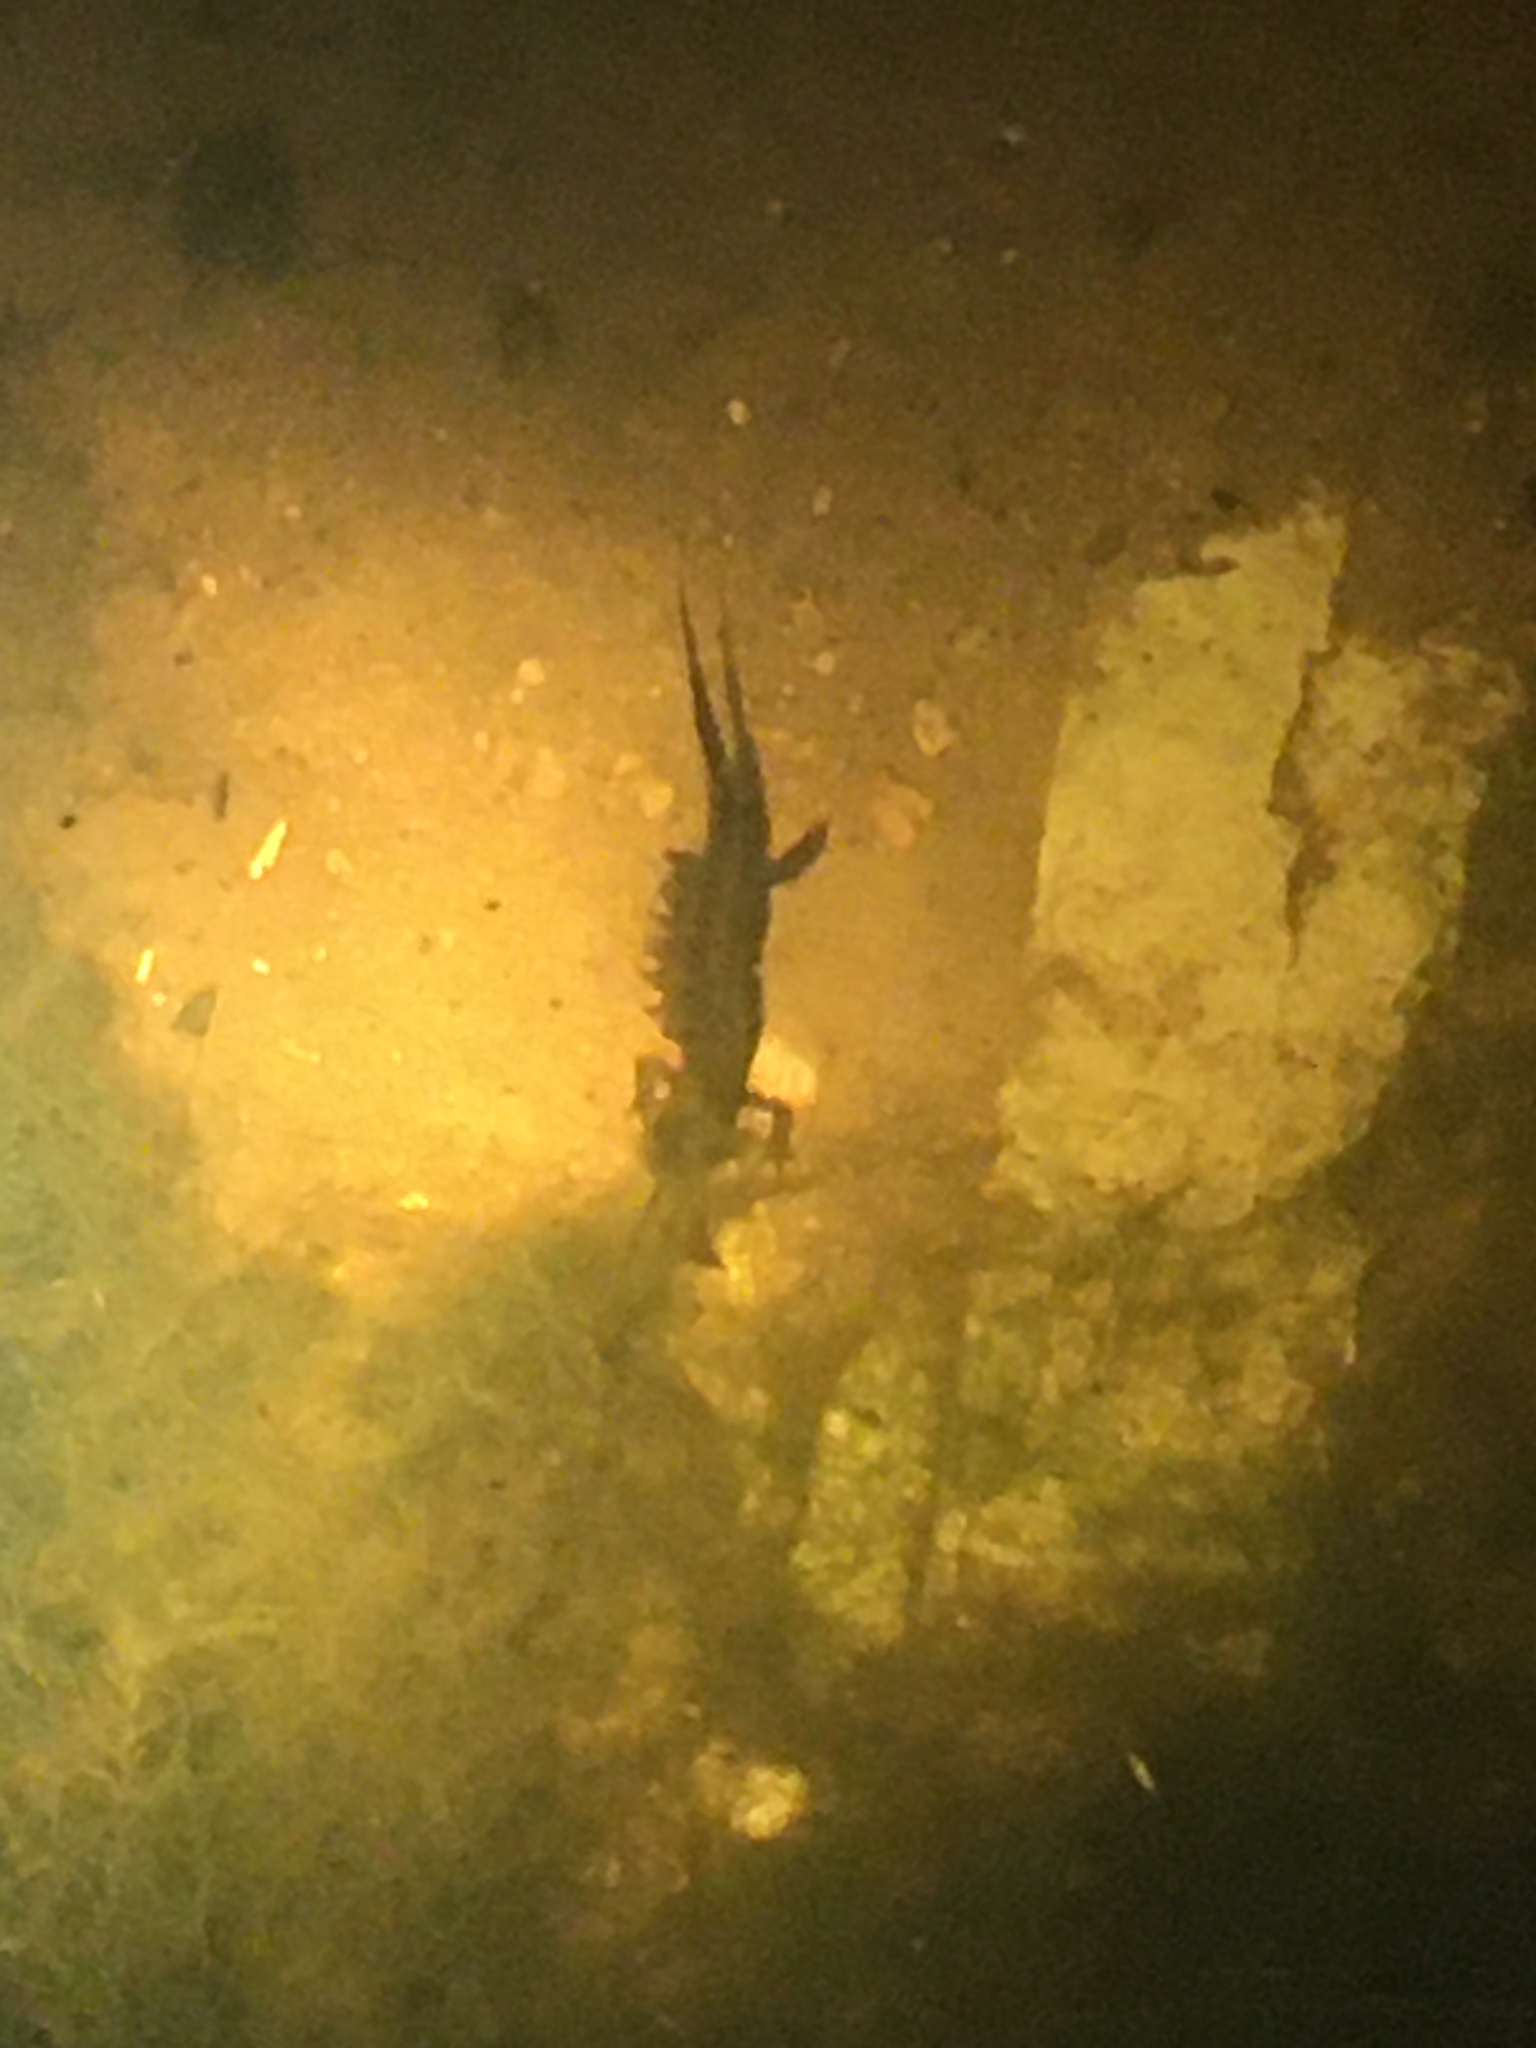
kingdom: Animalia
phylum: Chordata
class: Amphibia
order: Caudata
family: Salamandridae
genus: Triturus
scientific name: Triturus cristatus
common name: Crested newt
